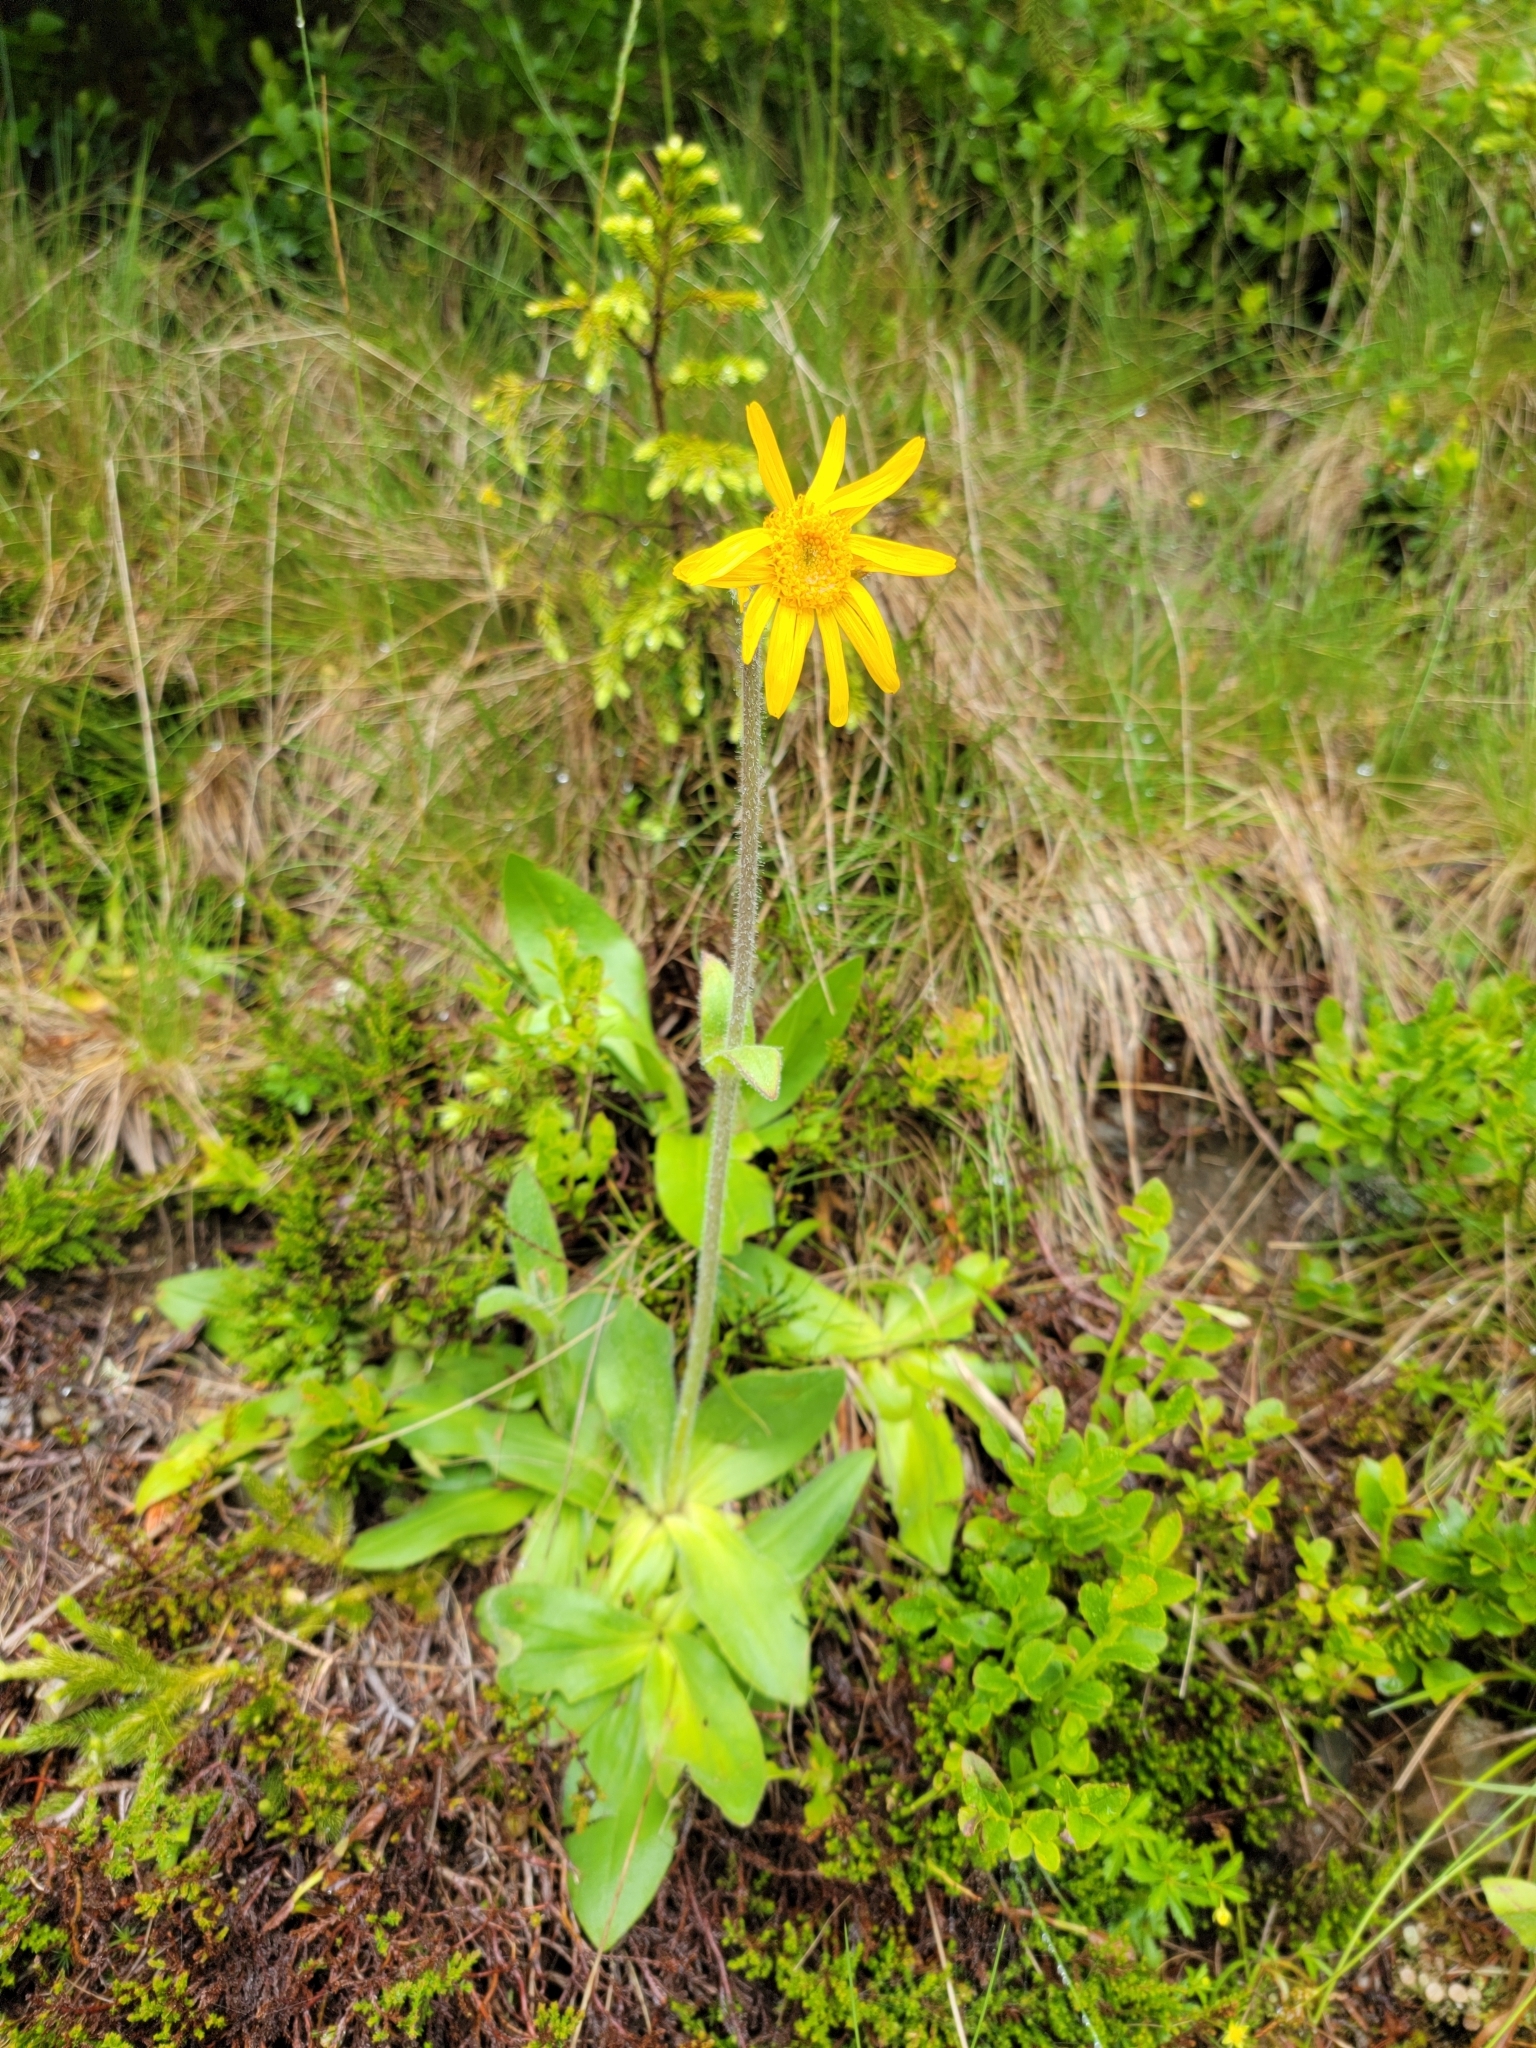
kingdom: Plantae
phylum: Tracheophyta
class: Magnoliopsida
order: Asterales
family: Asteraceae
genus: Arnica
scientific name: Arnica montana
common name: Leopard's bane
